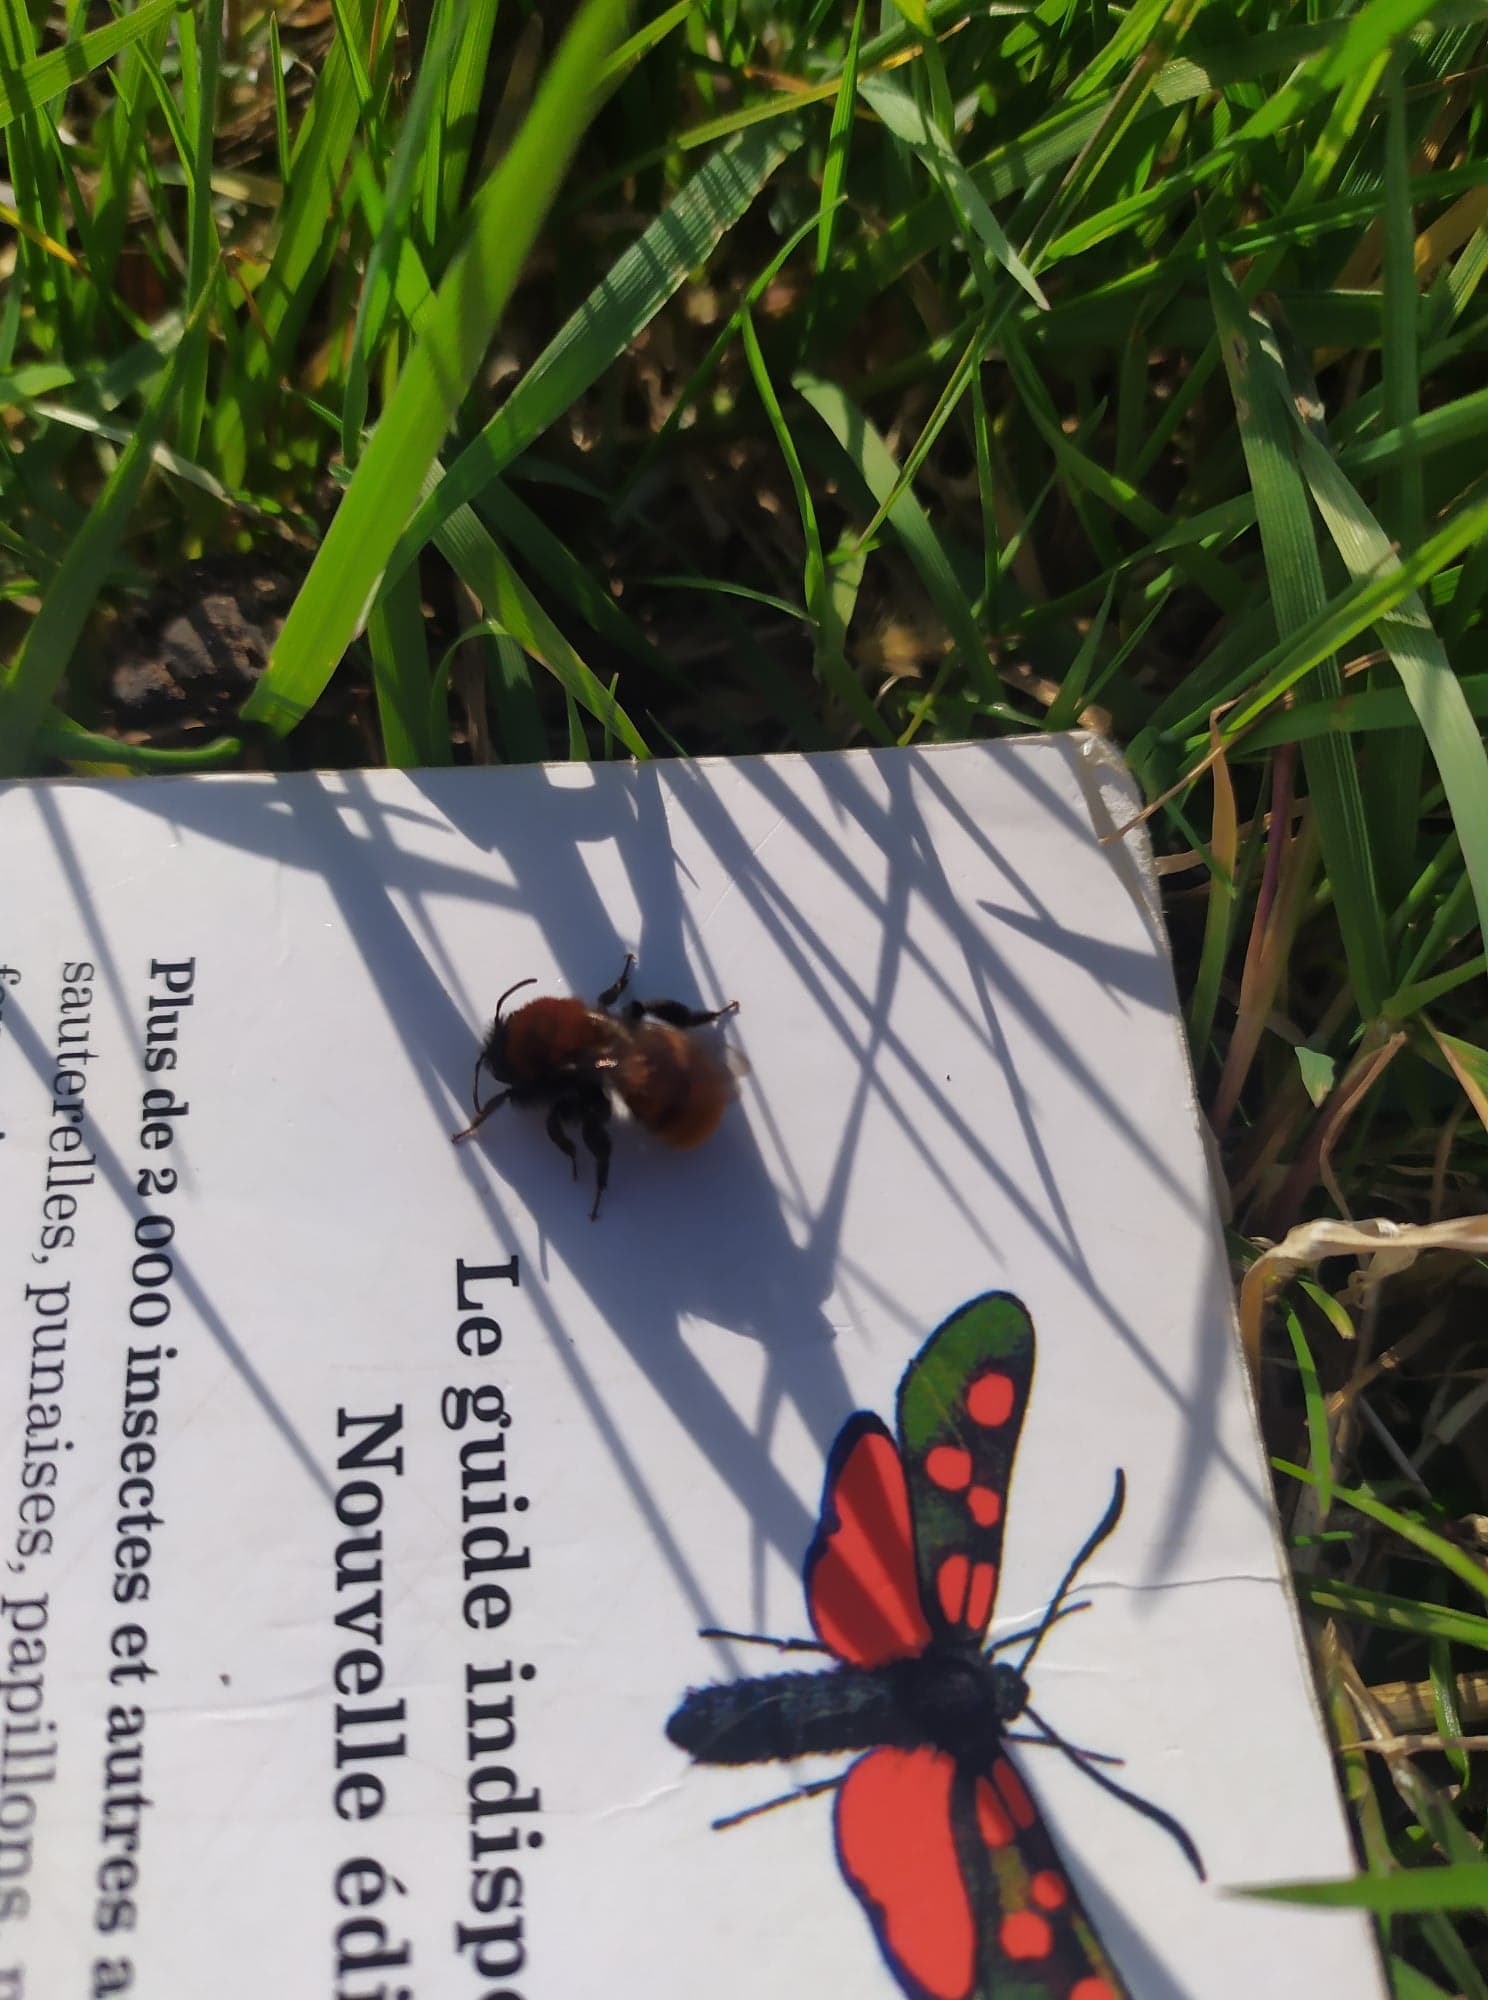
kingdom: Animalia
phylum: Arthropoda
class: Insecta
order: Hymenoptera
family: Andrenidae
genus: Andrena
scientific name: Andrena fulva
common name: Tawny mining bee
